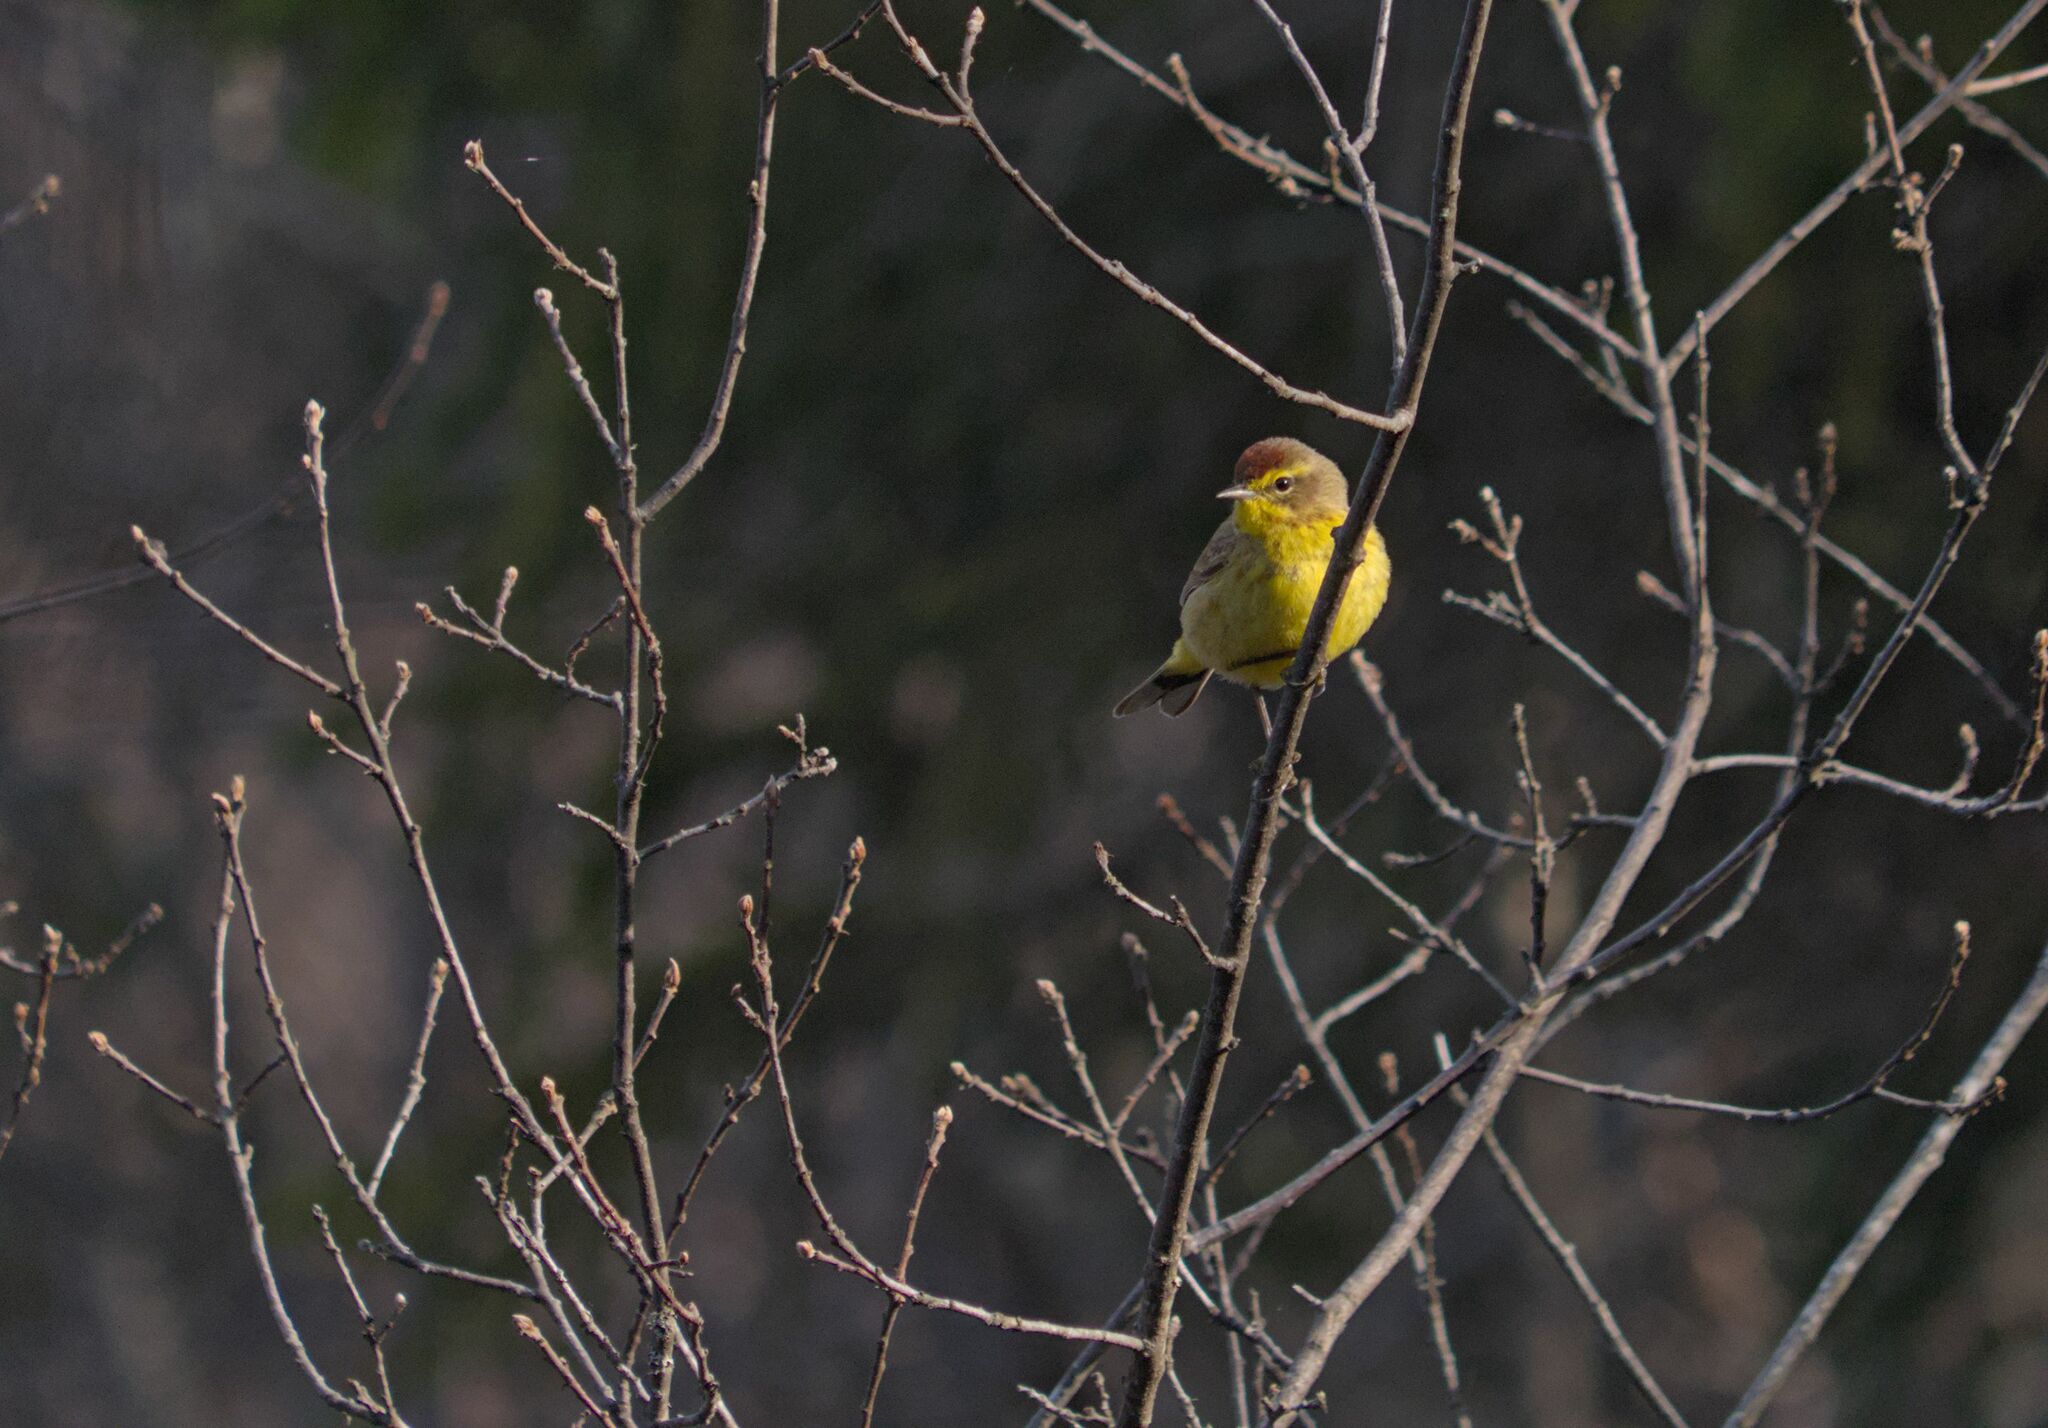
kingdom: Animalia
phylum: Chordata
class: Aves
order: Passeriformes
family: Parulidae
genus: Setophaga
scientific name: Setophaga palmarum
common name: Palm warbler
